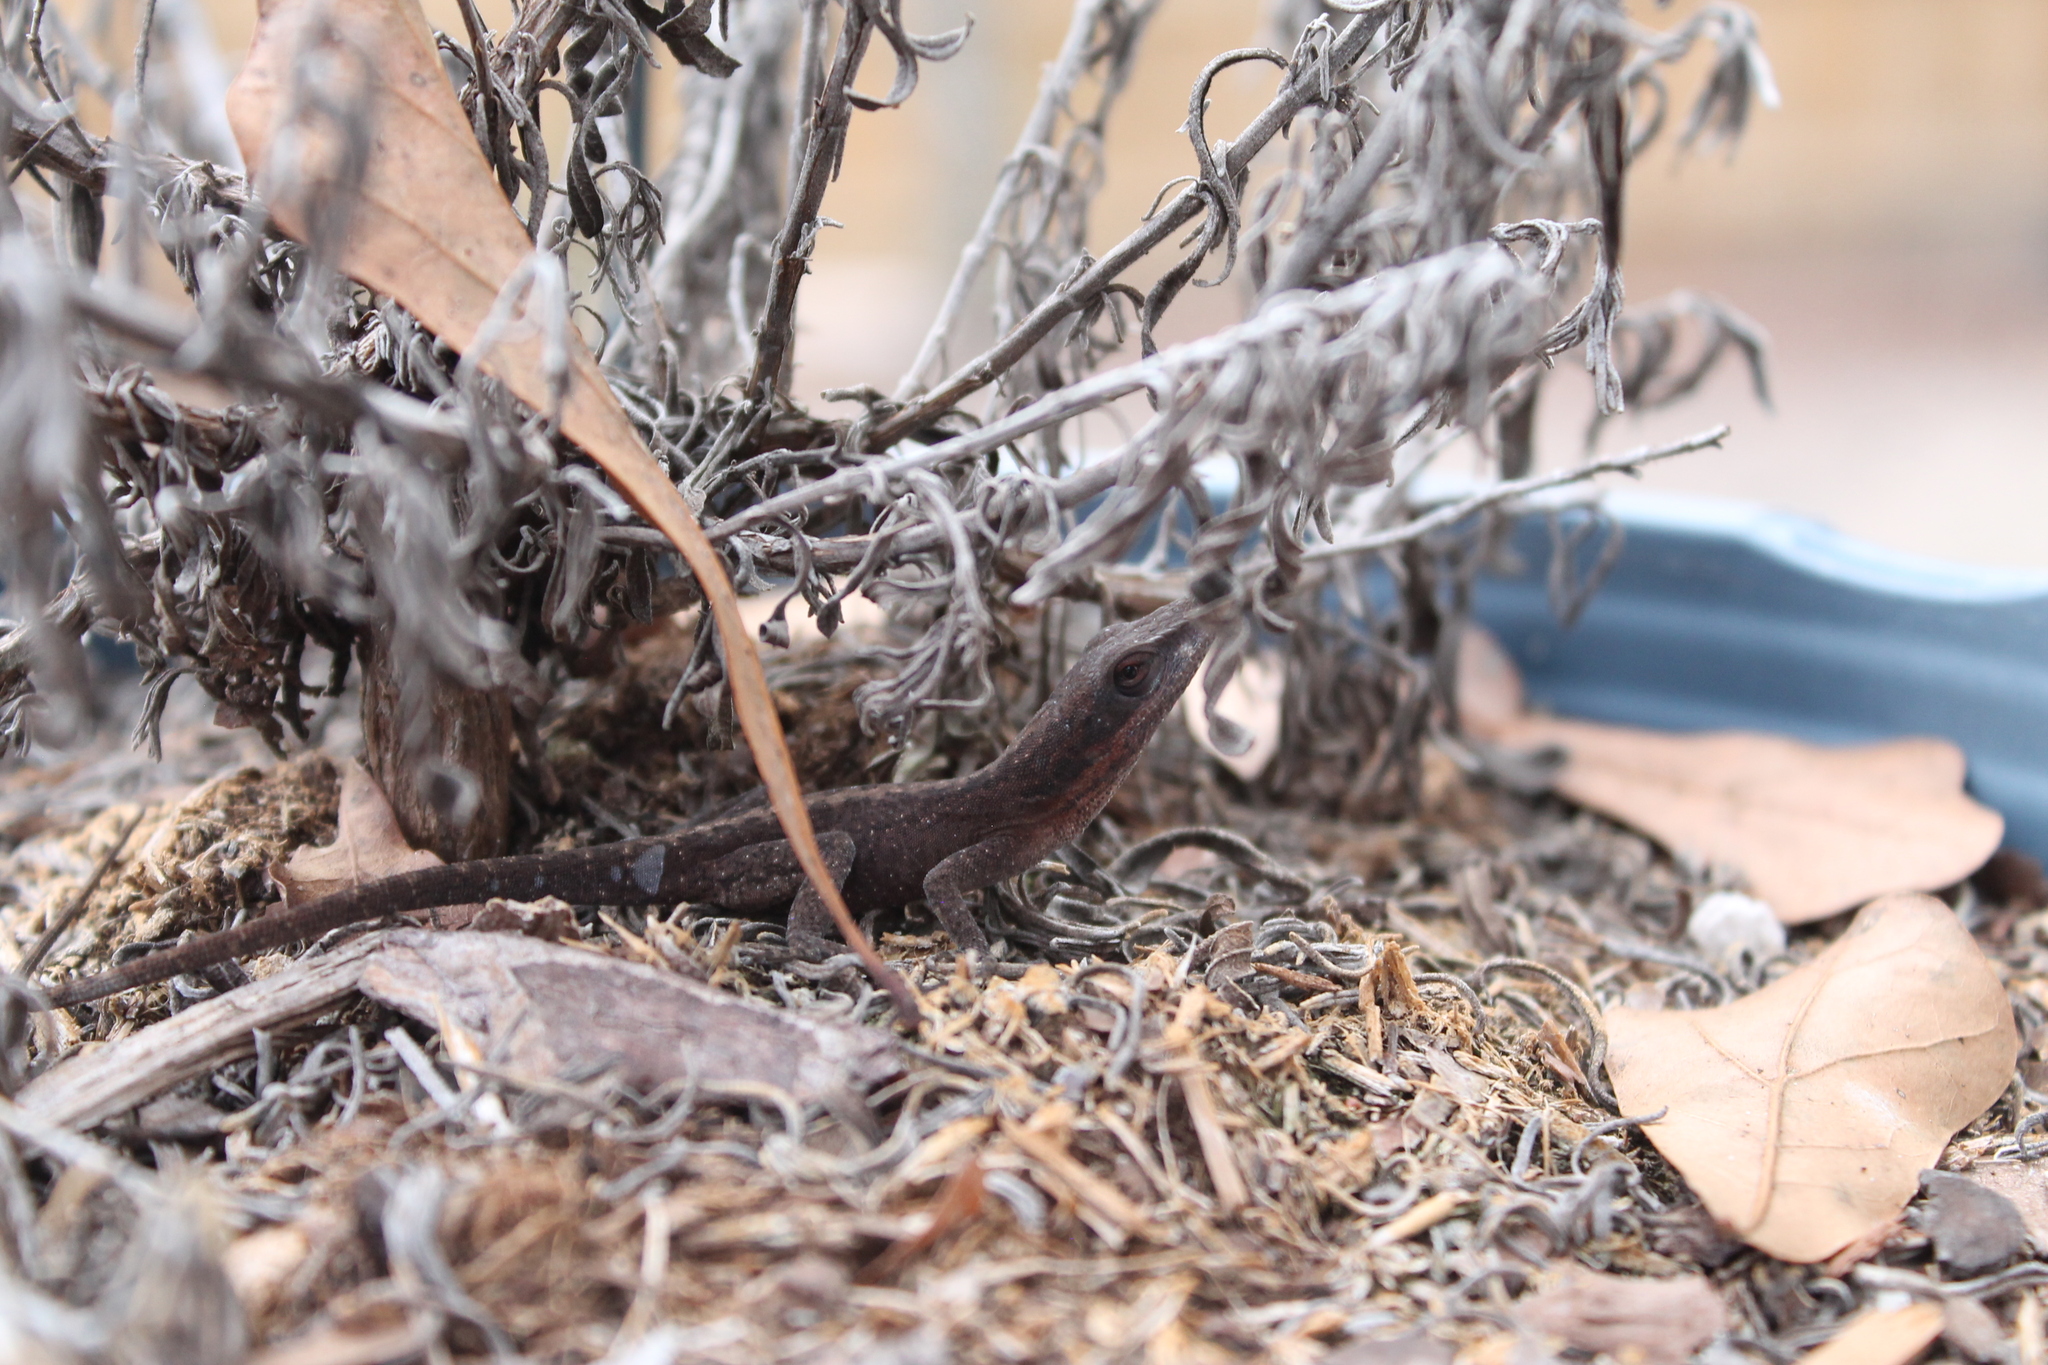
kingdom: Animalia
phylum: Chordata
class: Squamata
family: Dactyloidae
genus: Anolis
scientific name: Anolis carolinensis
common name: Green anole
